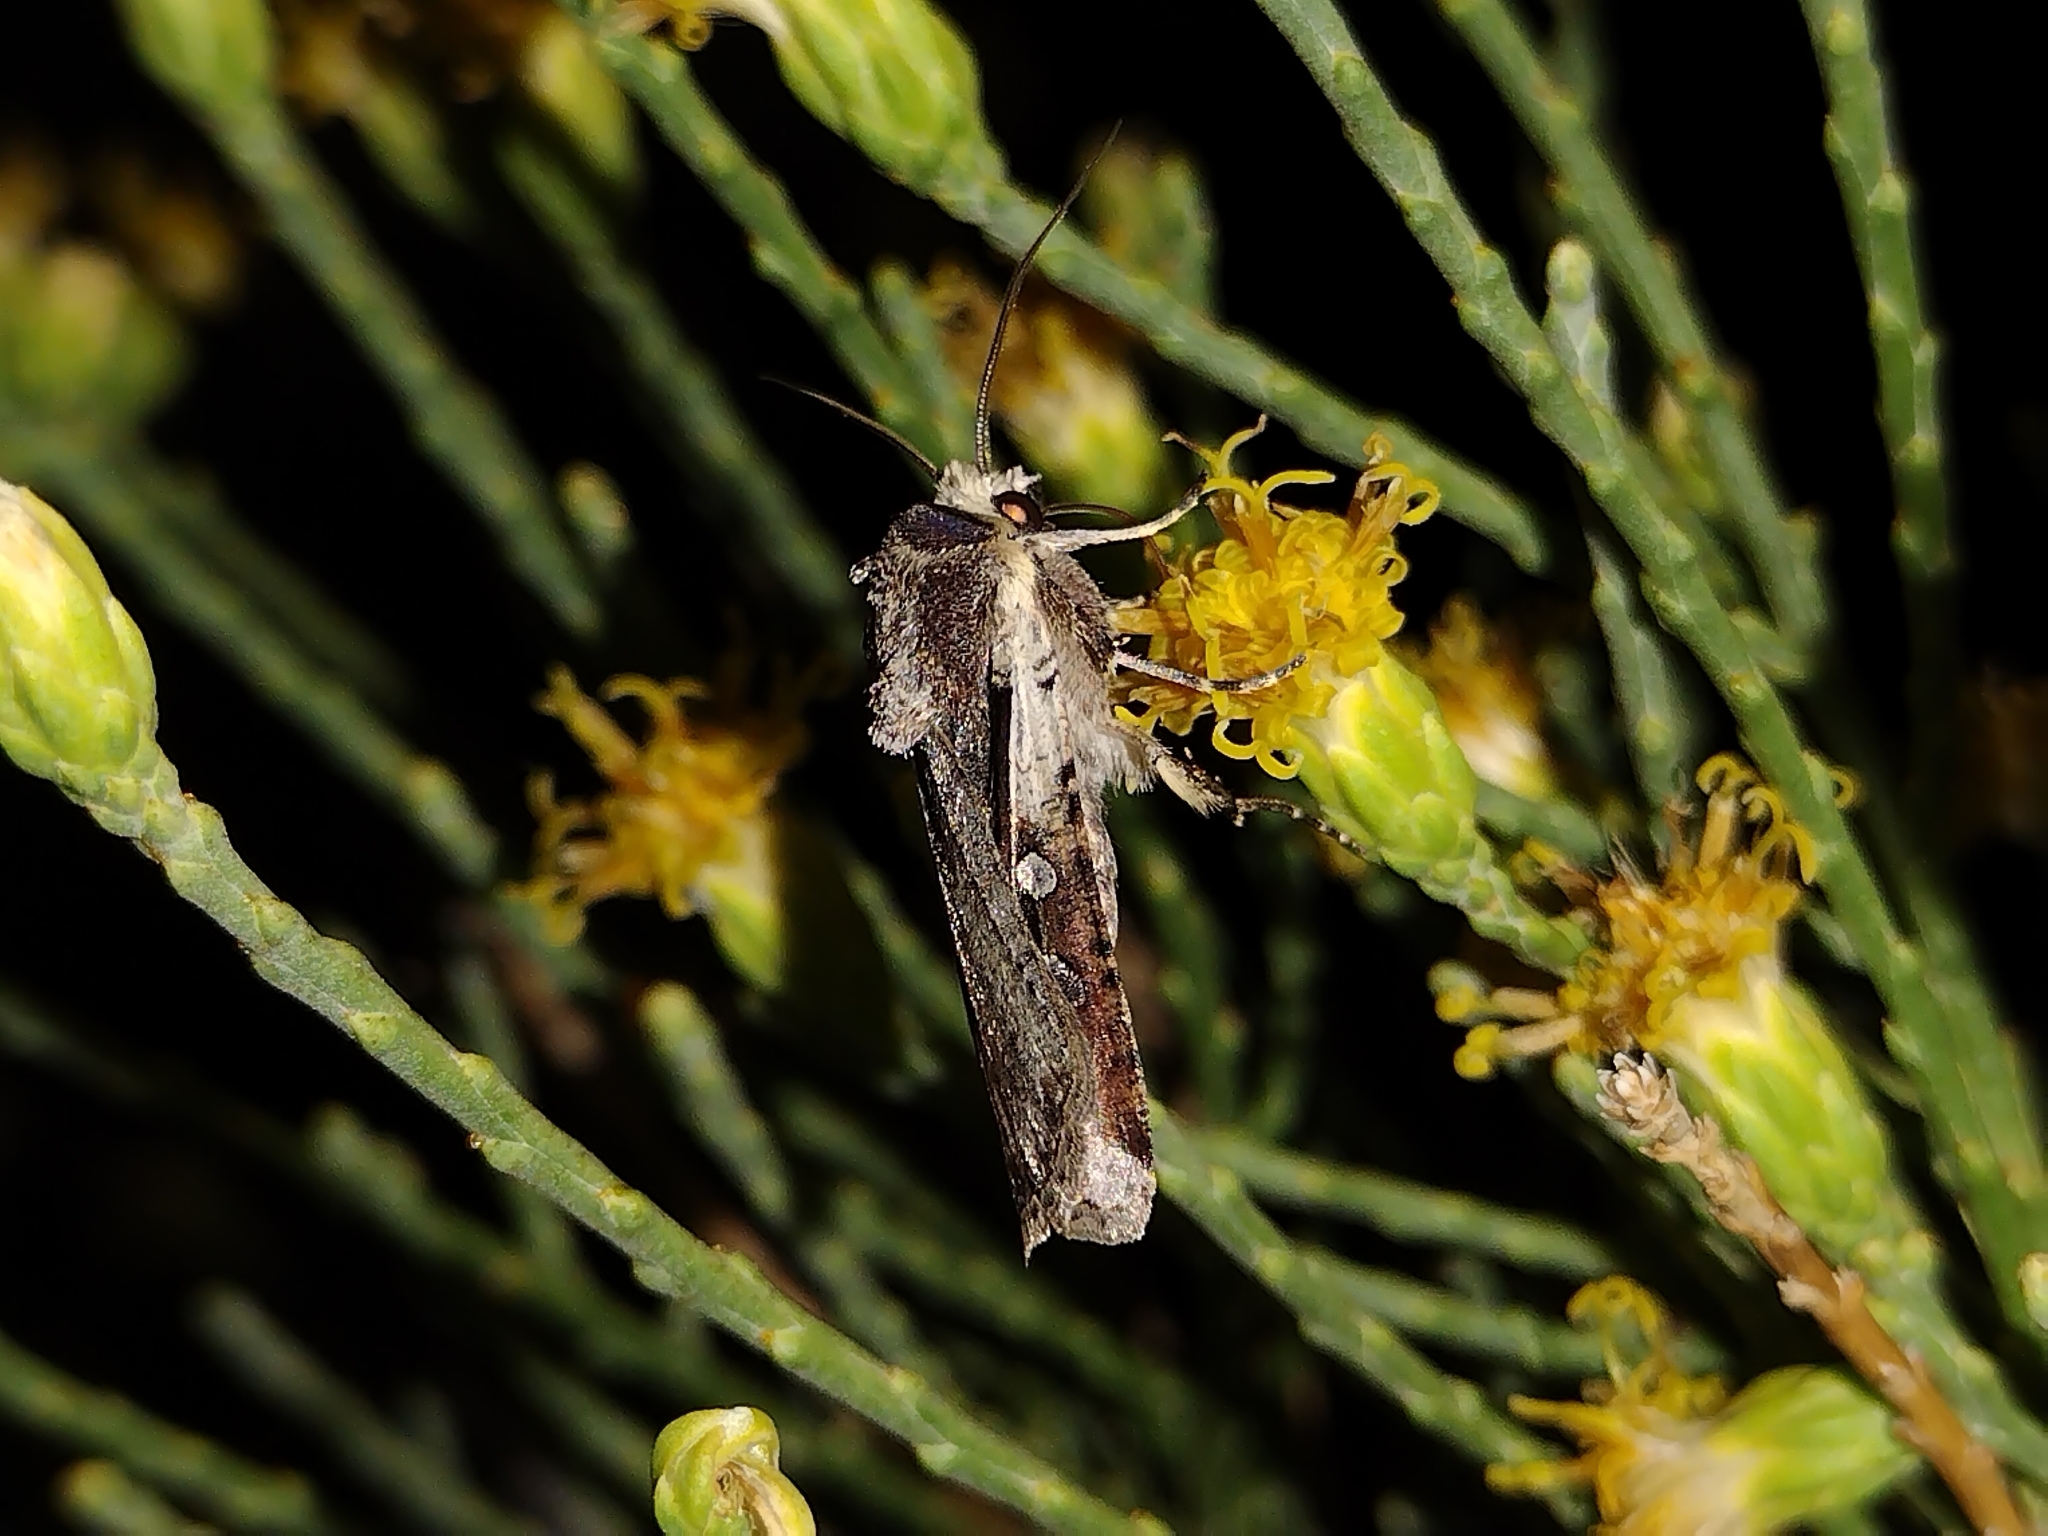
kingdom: Animalia
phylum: Arthropoda
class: Insecta
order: Lepidoptera
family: Noctuidae
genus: Hemieuxoa
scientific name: Hemieuxoa rudens
